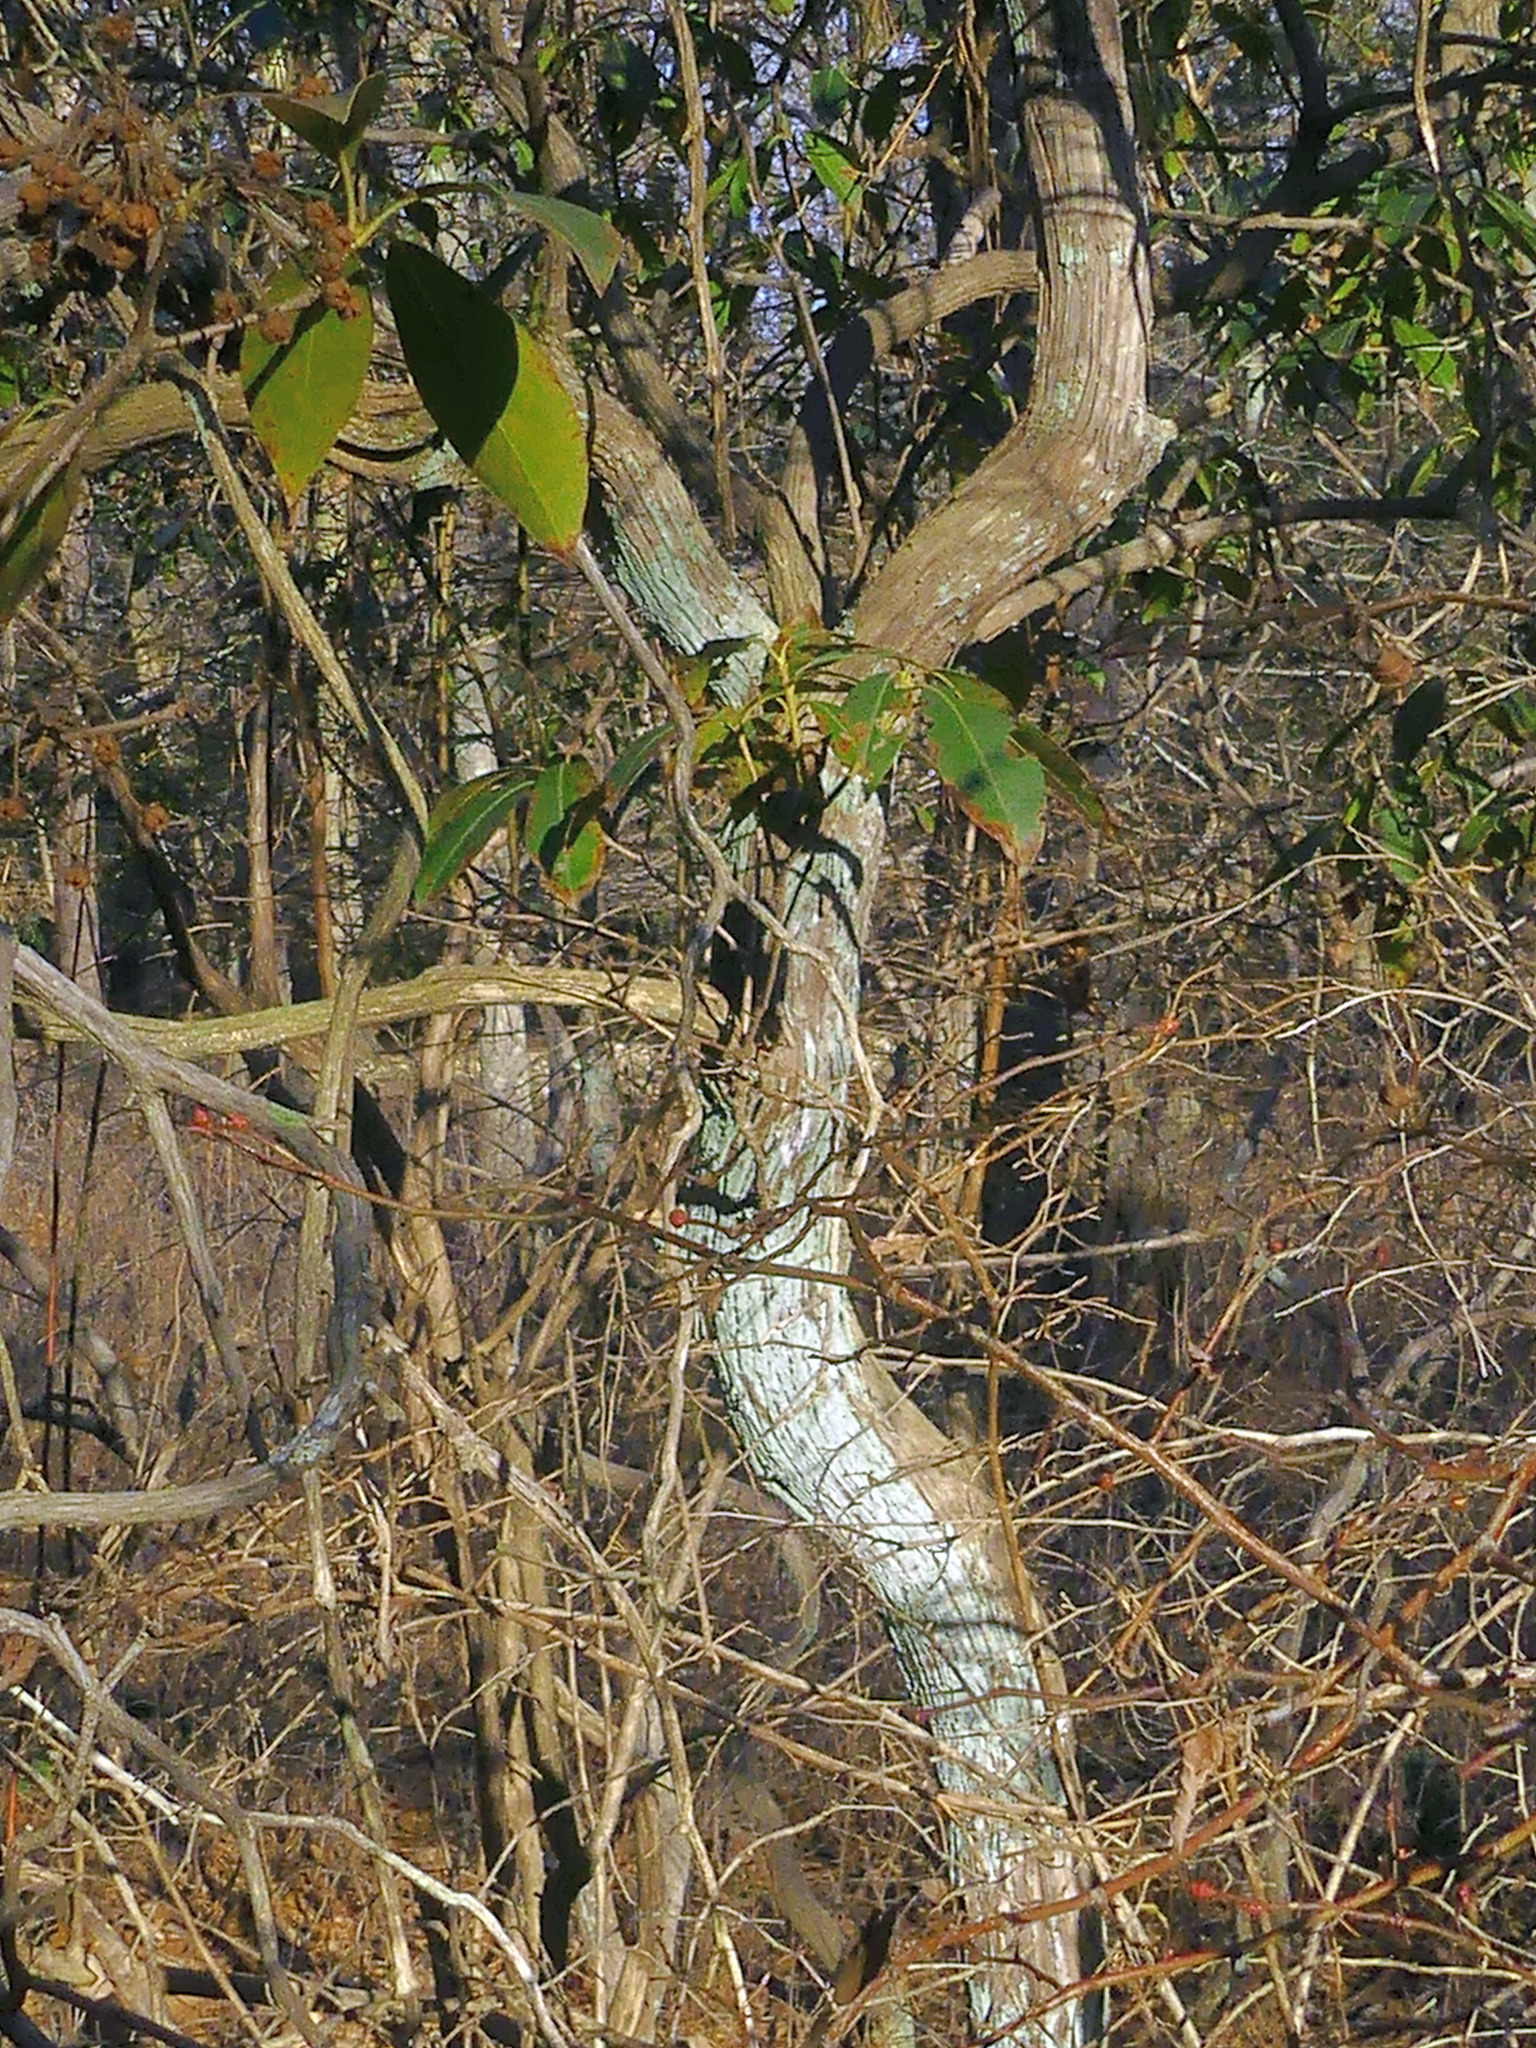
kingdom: Plantae
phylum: Tracheophyta
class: Magnoliopsida
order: Ericales
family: Ericaceae
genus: Kalmia
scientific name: Kalmia latifolia
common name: Mountain-laurel
